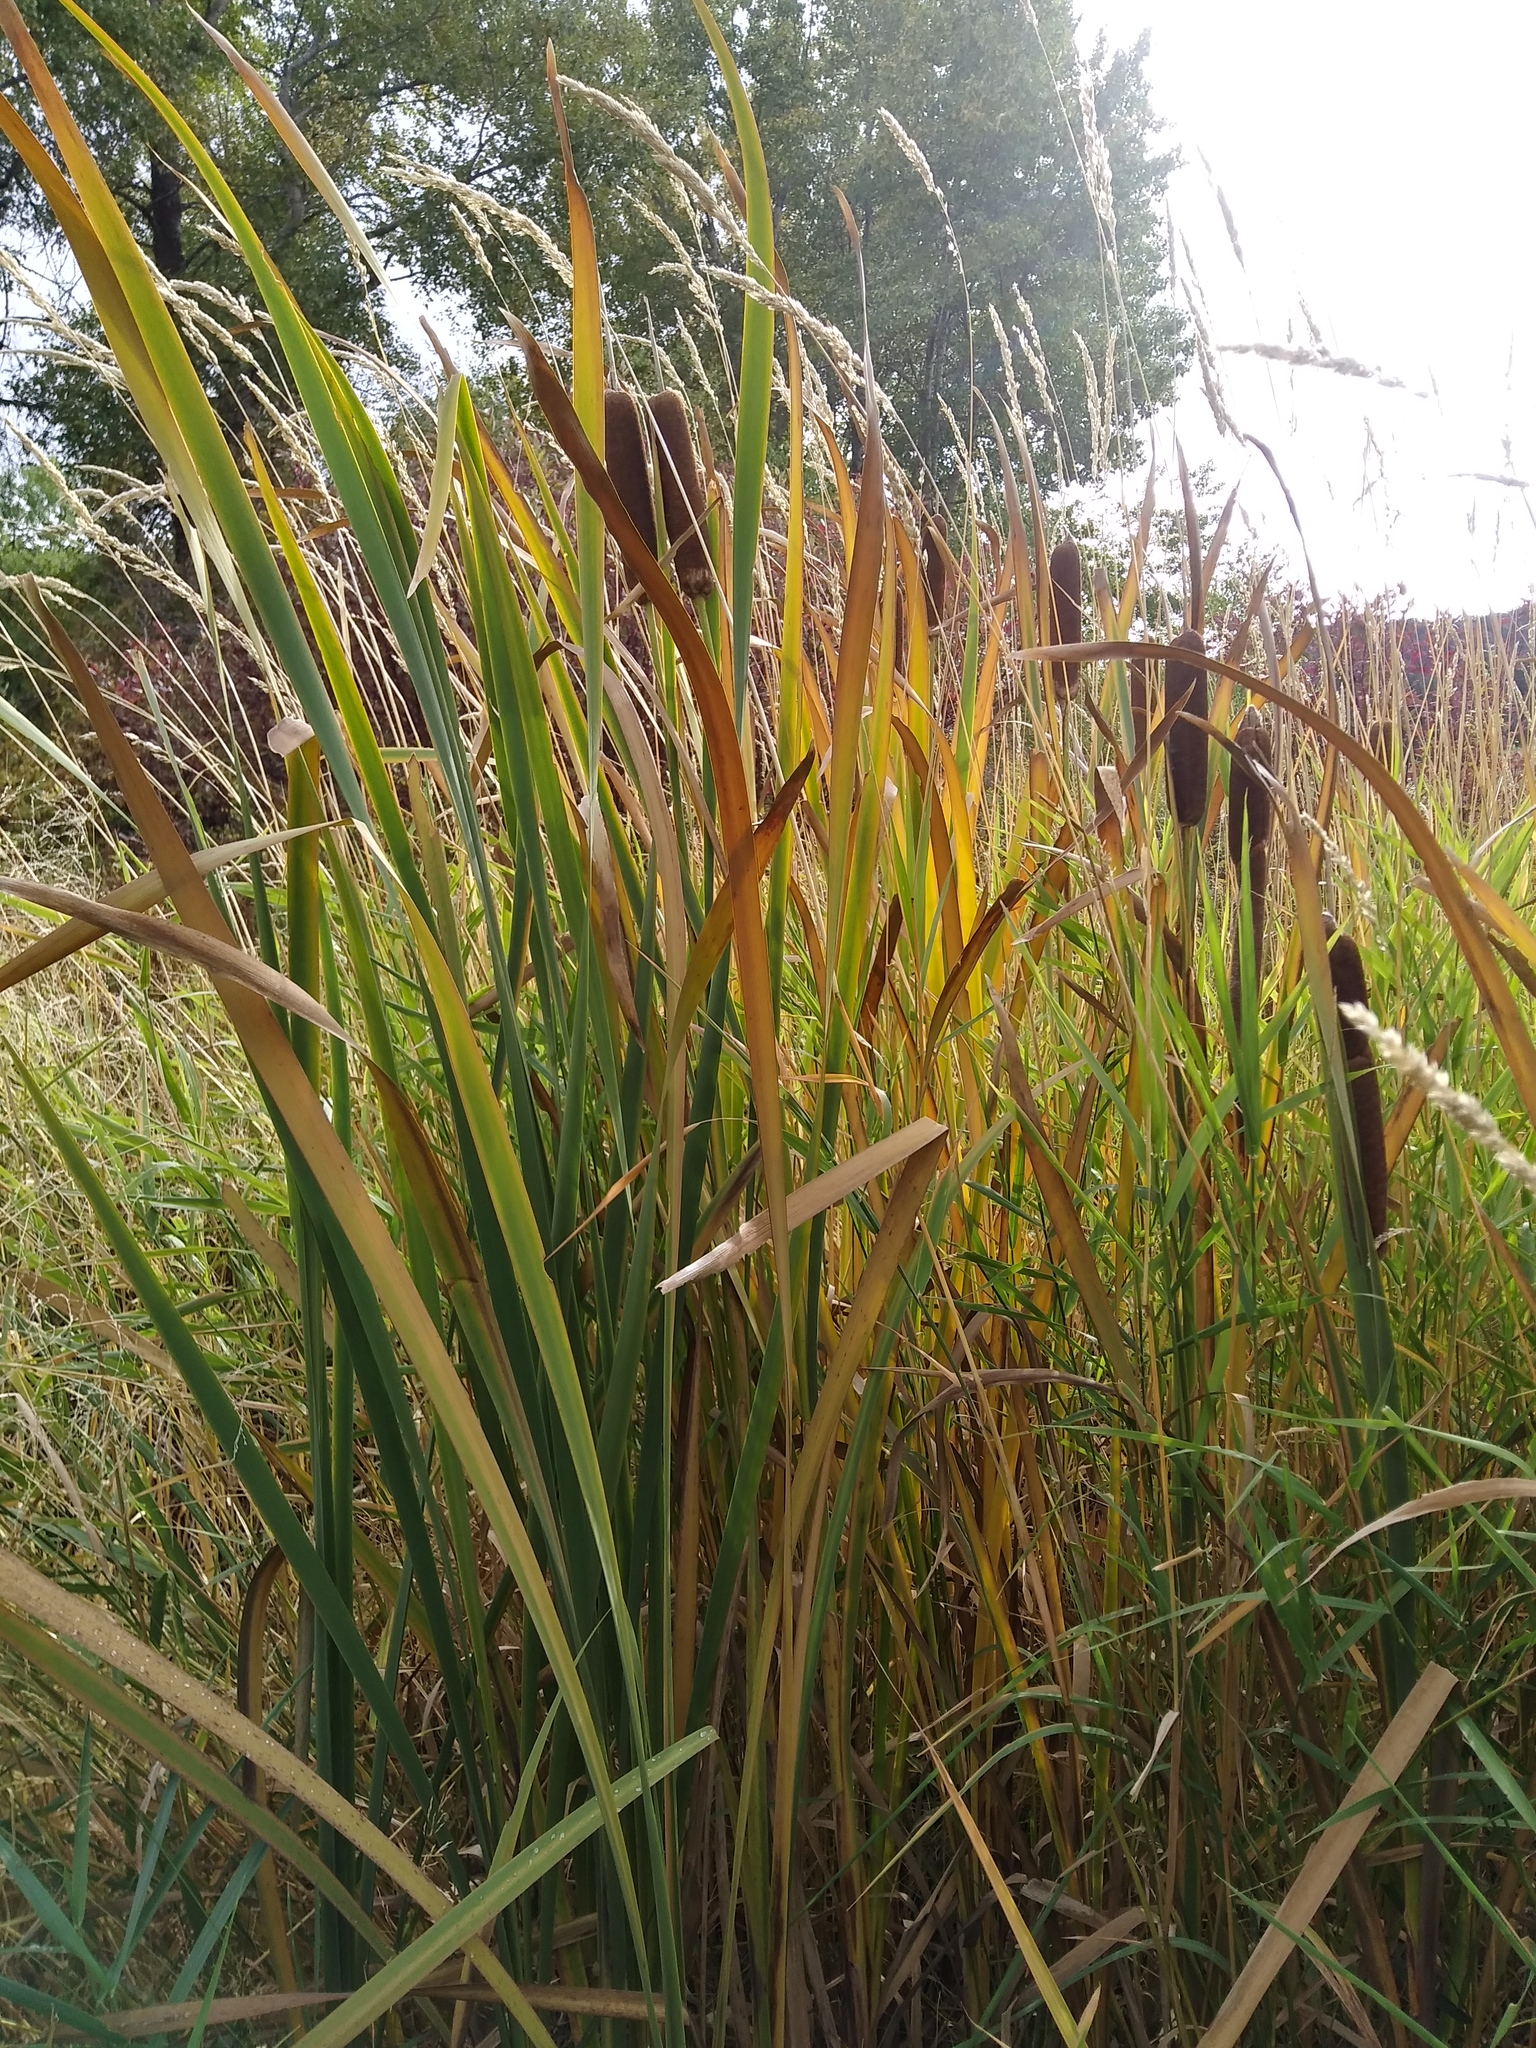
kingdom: Plantae
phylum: Tracheophyta
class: Liliopsida
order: Poales
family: Typhaceae
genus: Typha
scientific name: Typha latifolia
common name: Broadleaf cattail
